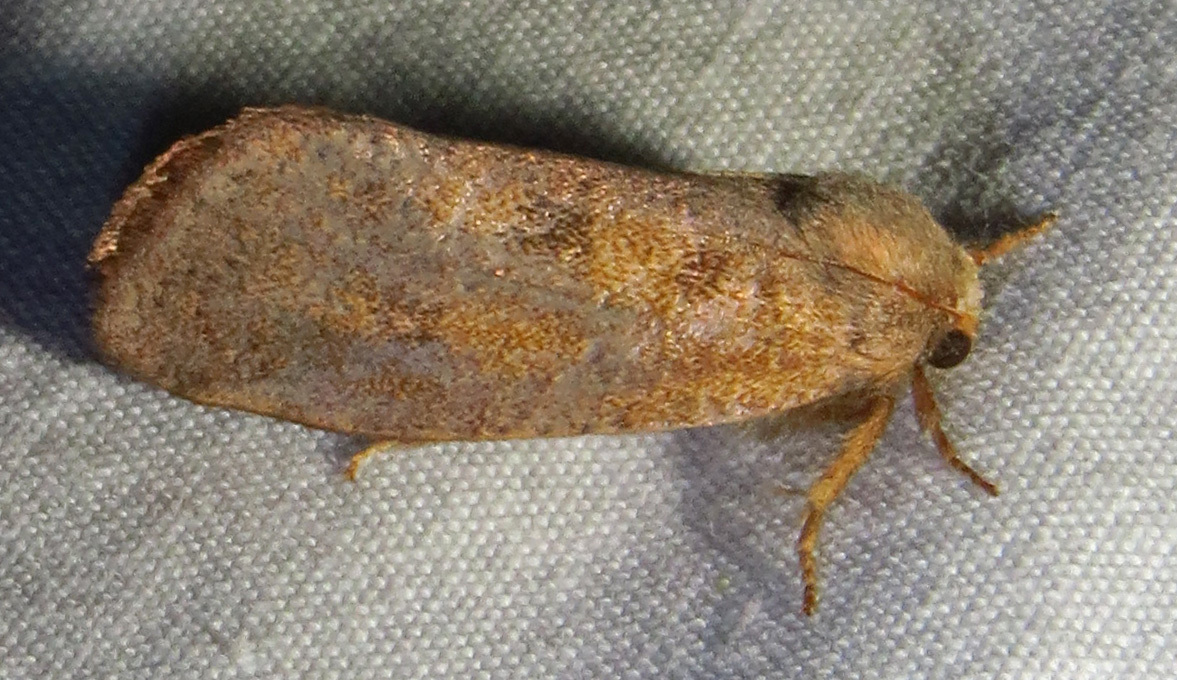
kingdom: Animalia
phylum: Arthropoda
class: Insecta
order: Lepidoptera
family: Tineidae
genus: Acrolophus
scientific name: Acrolophus plumifrontella
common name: Eastern grass tubeworm moth
